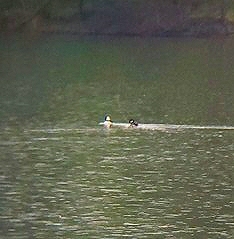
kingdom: Animalia
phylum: Chordata
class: Aves
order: Anseriformes
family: Anatidae
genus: Bucephala
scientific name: Bucephala albeola
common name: Bufflehead
